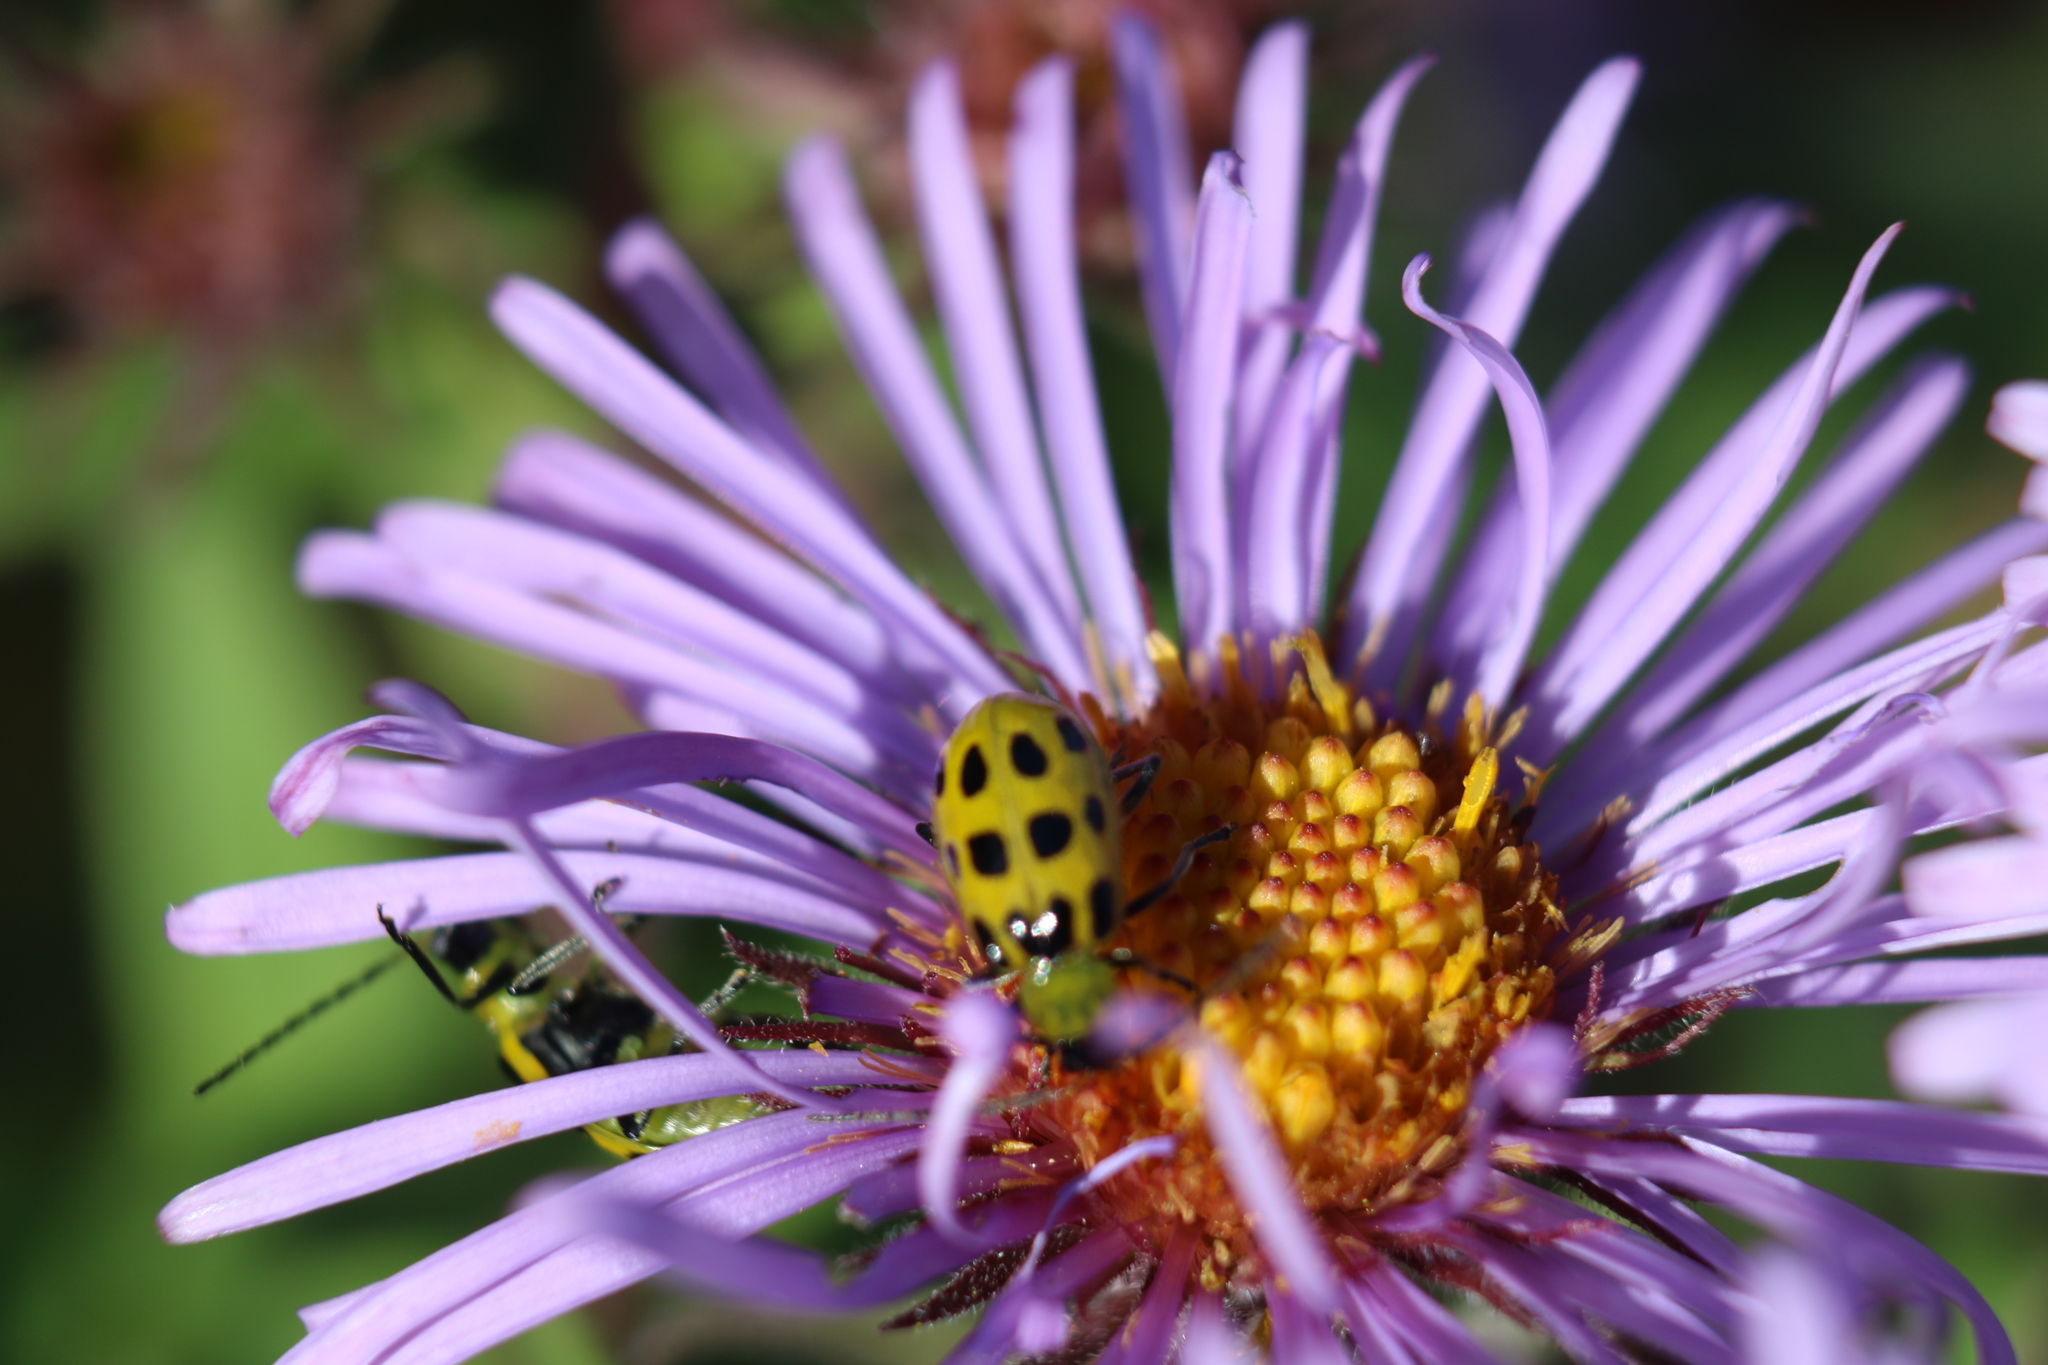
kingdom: Animalia
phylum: Arthropoda
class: Insecta
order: Coleoptera
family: Chrysomelidae
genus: Diabrotica
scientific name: Diabrotica undecimpunctata
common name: Spotted cucumber beetle
